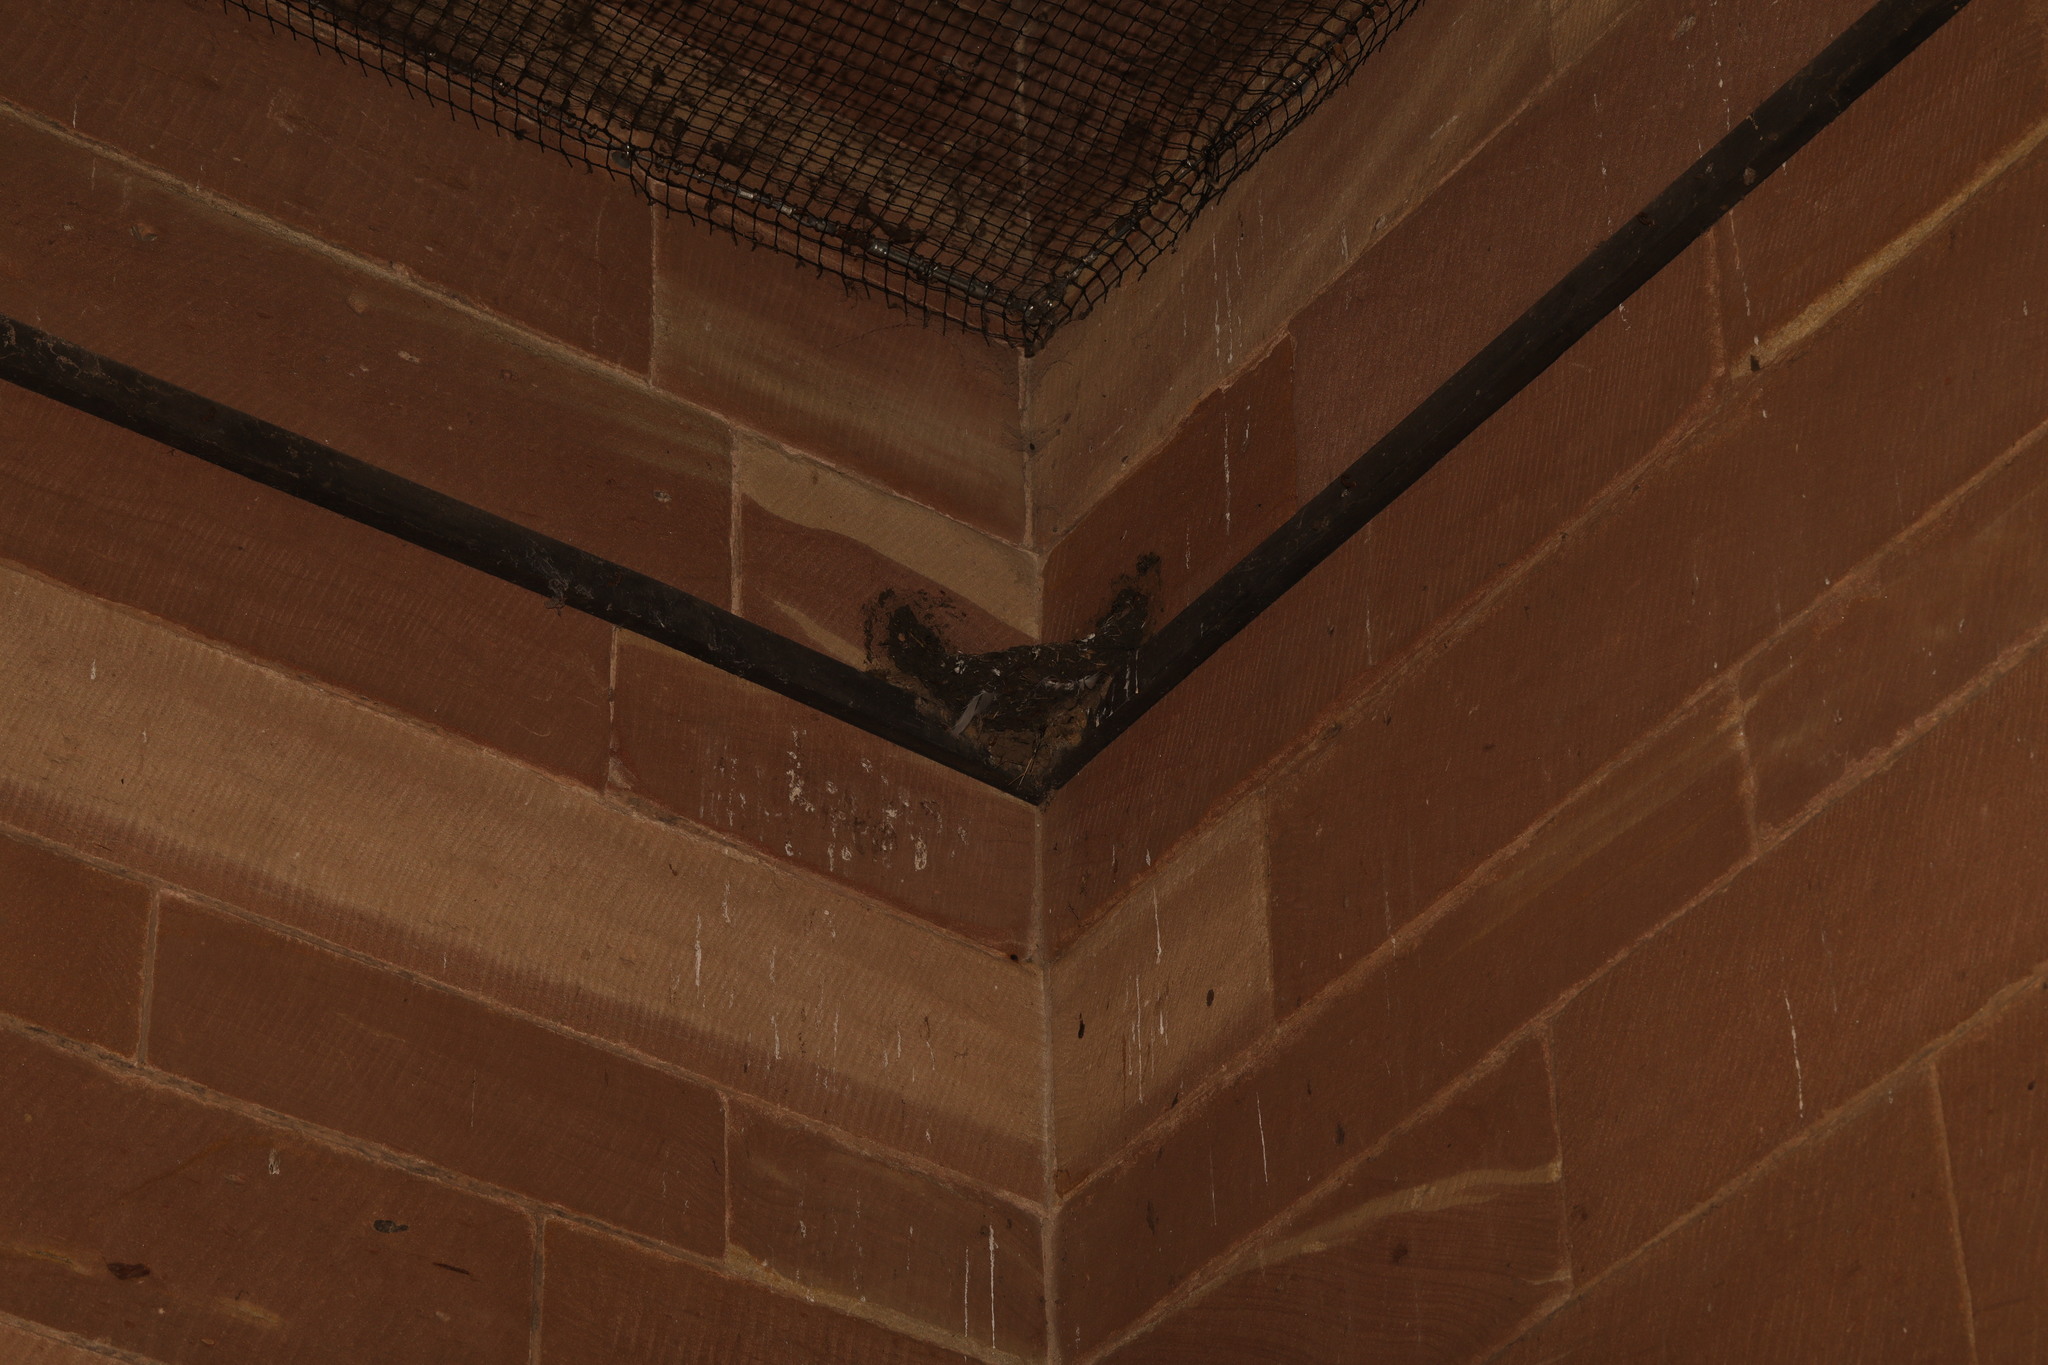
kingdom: Animalia
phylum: Chordata
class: Aves
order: Passeriformes
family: Hirundinidae
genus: Hirundo
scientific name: Hirundo rustica
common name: Barn swallow
